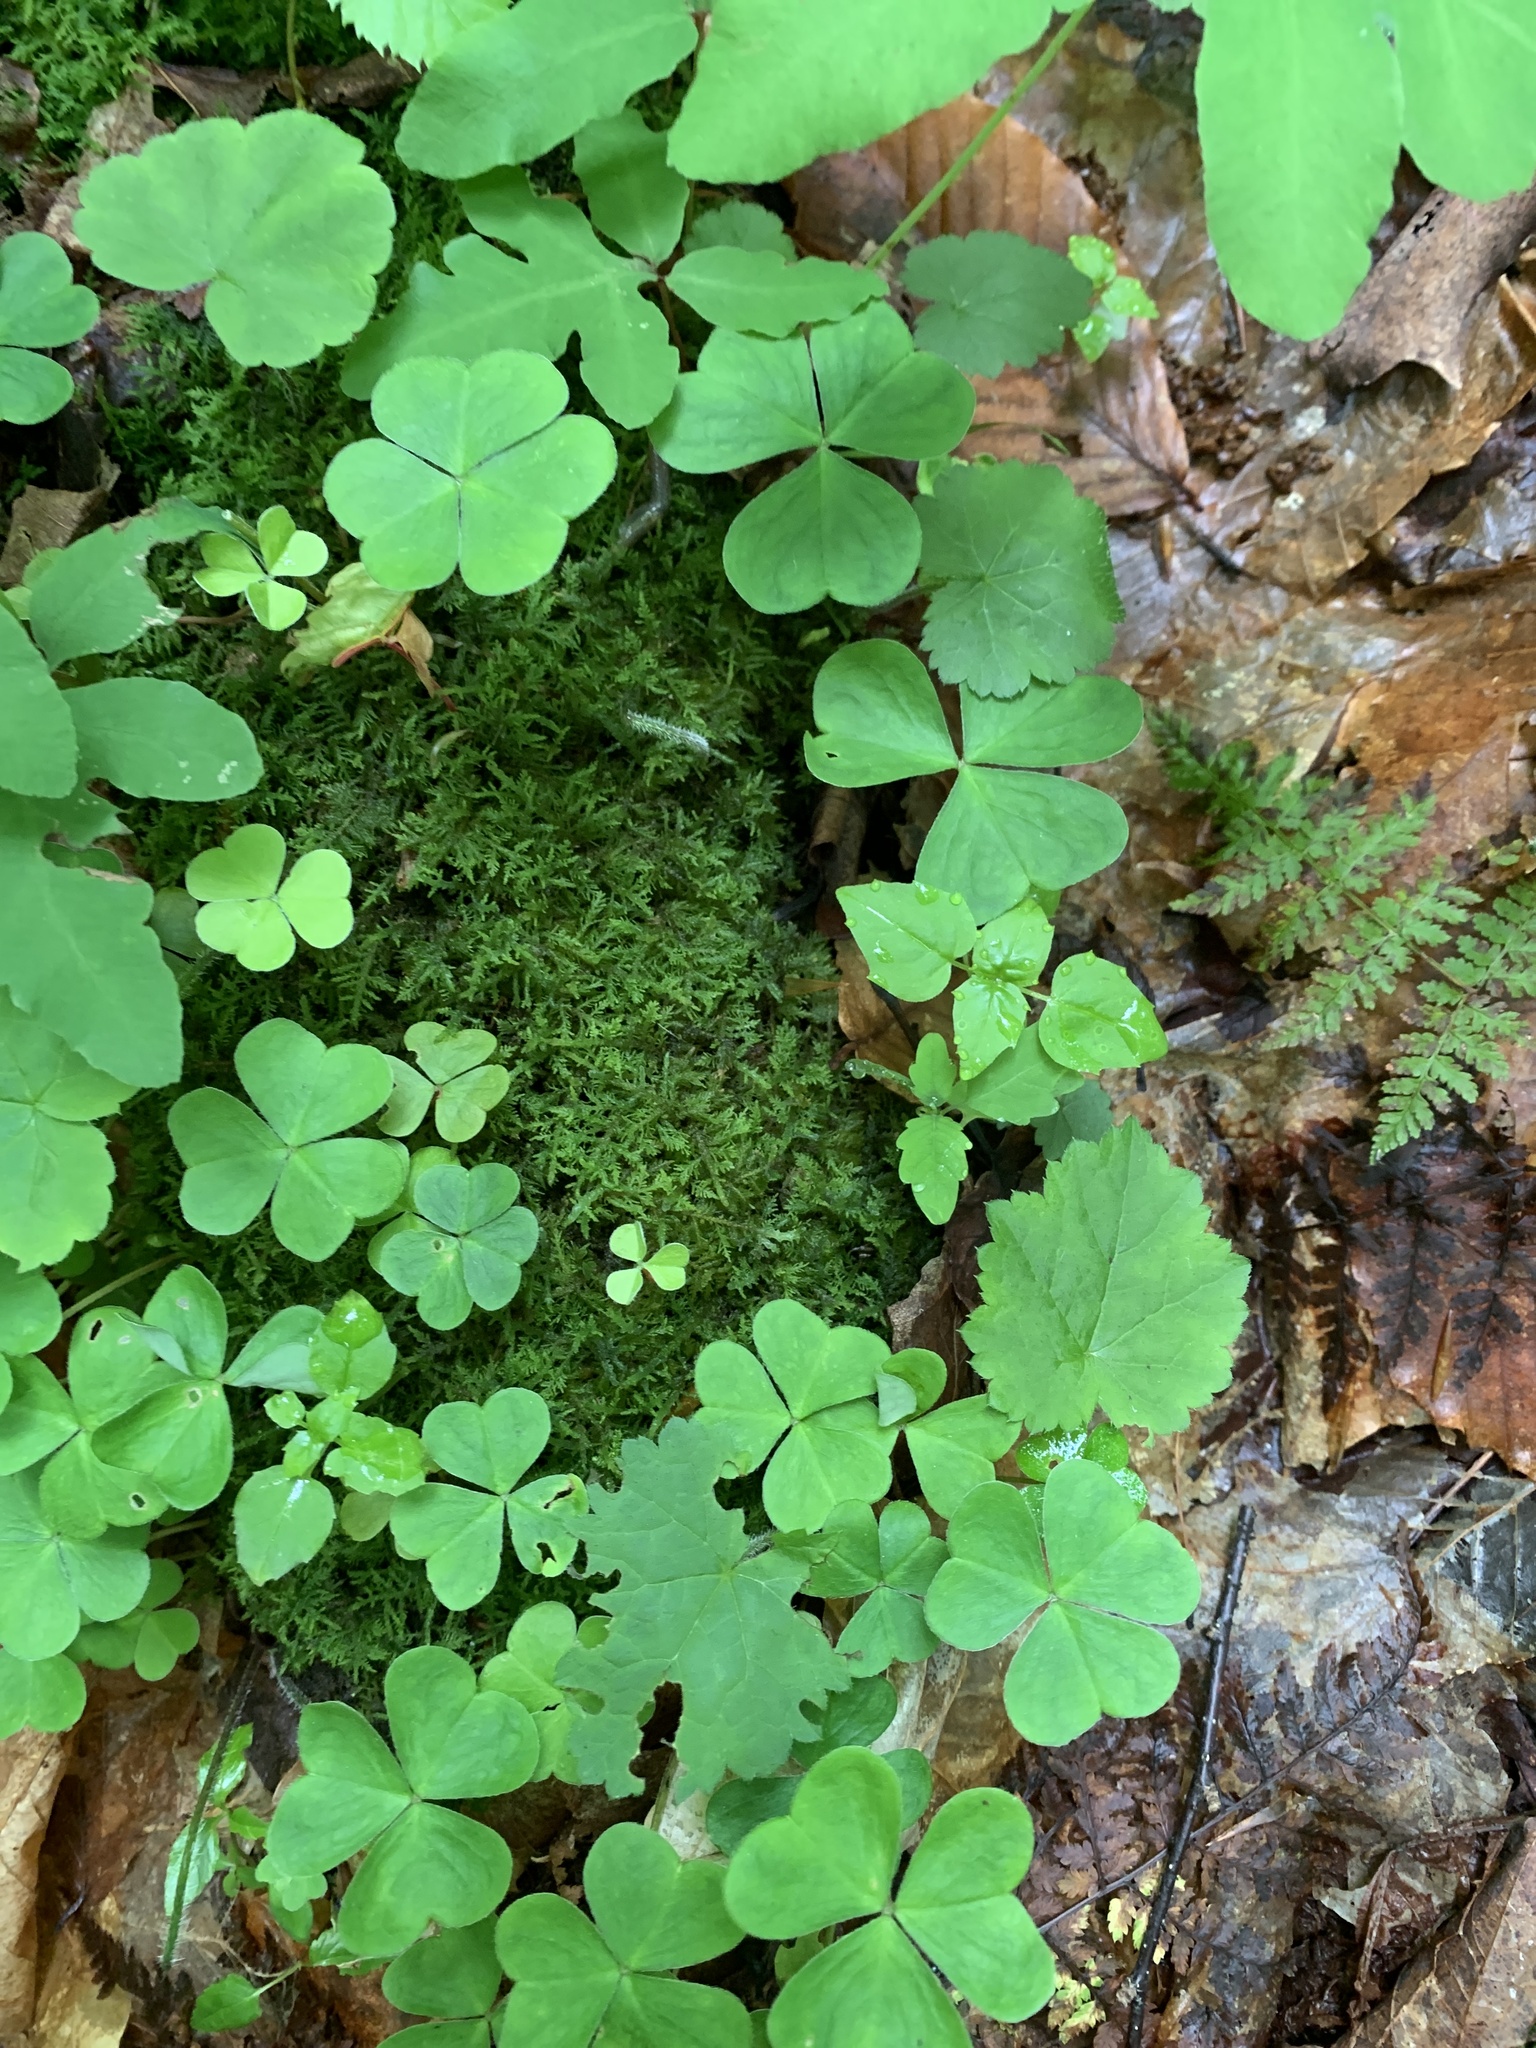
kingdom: Plantae
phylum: Tracheophyta
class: Magnoliopsida
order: Oxalidales
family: Oxalidaceae
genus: Oxalis
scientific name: Oxalis montana
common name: American wood-sorrel
